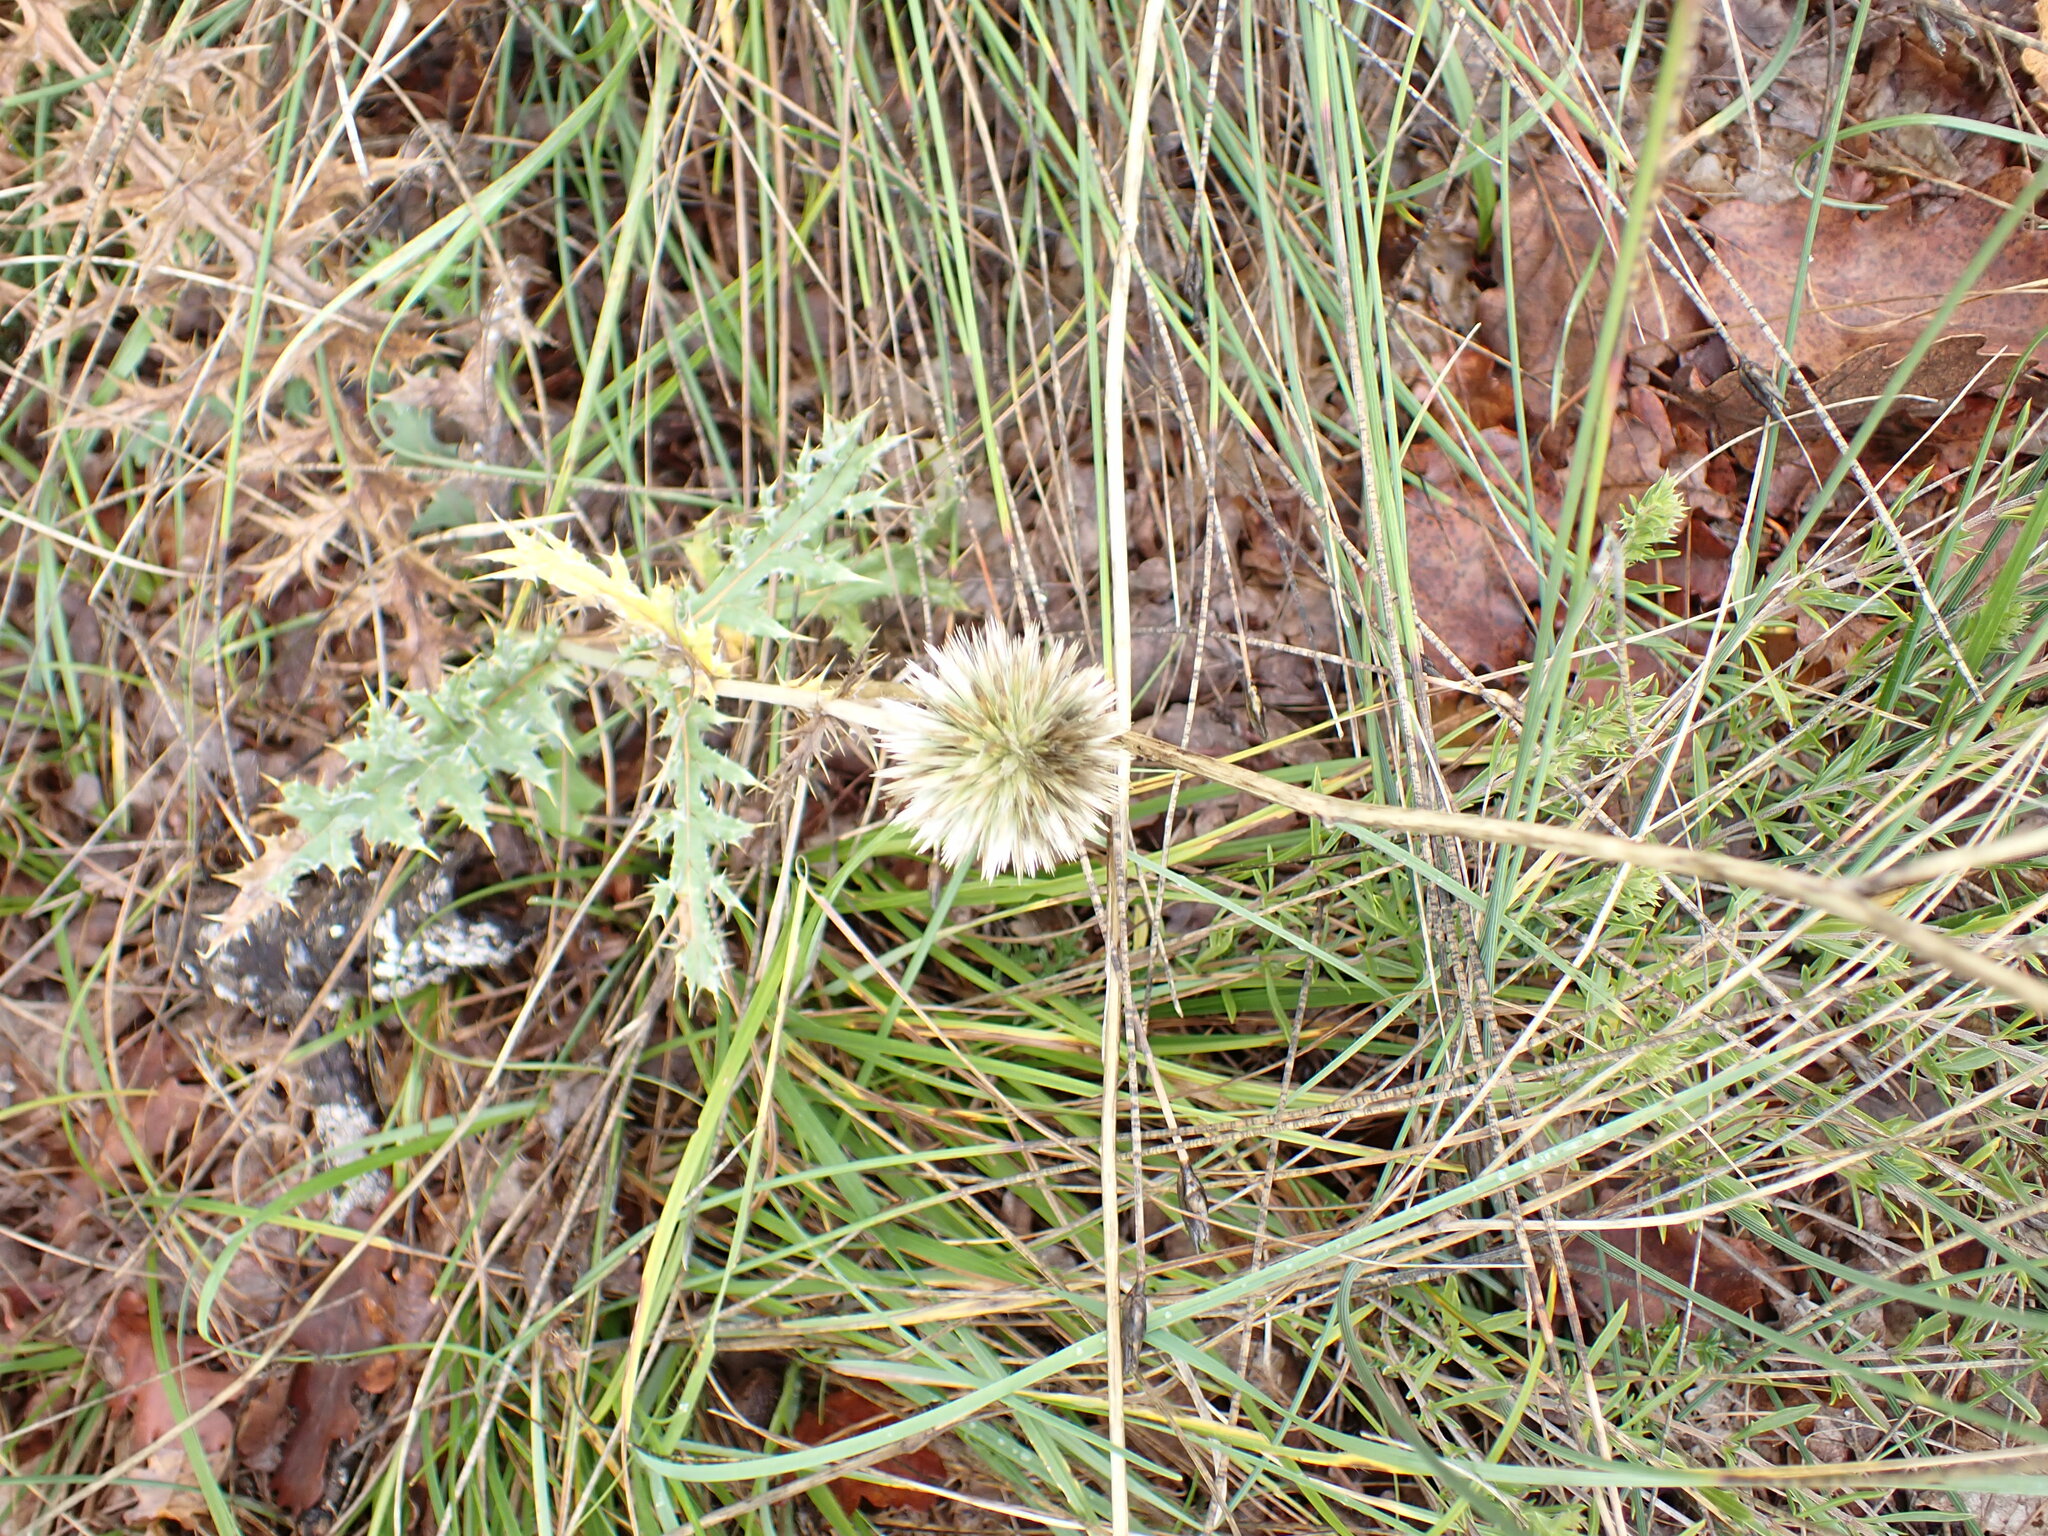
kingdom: Plantae
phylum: Tracheophyta
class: Magnoliopsida
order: Asterales
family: Asteraceae
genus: Echinops
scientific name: Echinops ritro
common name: Globe thistle
